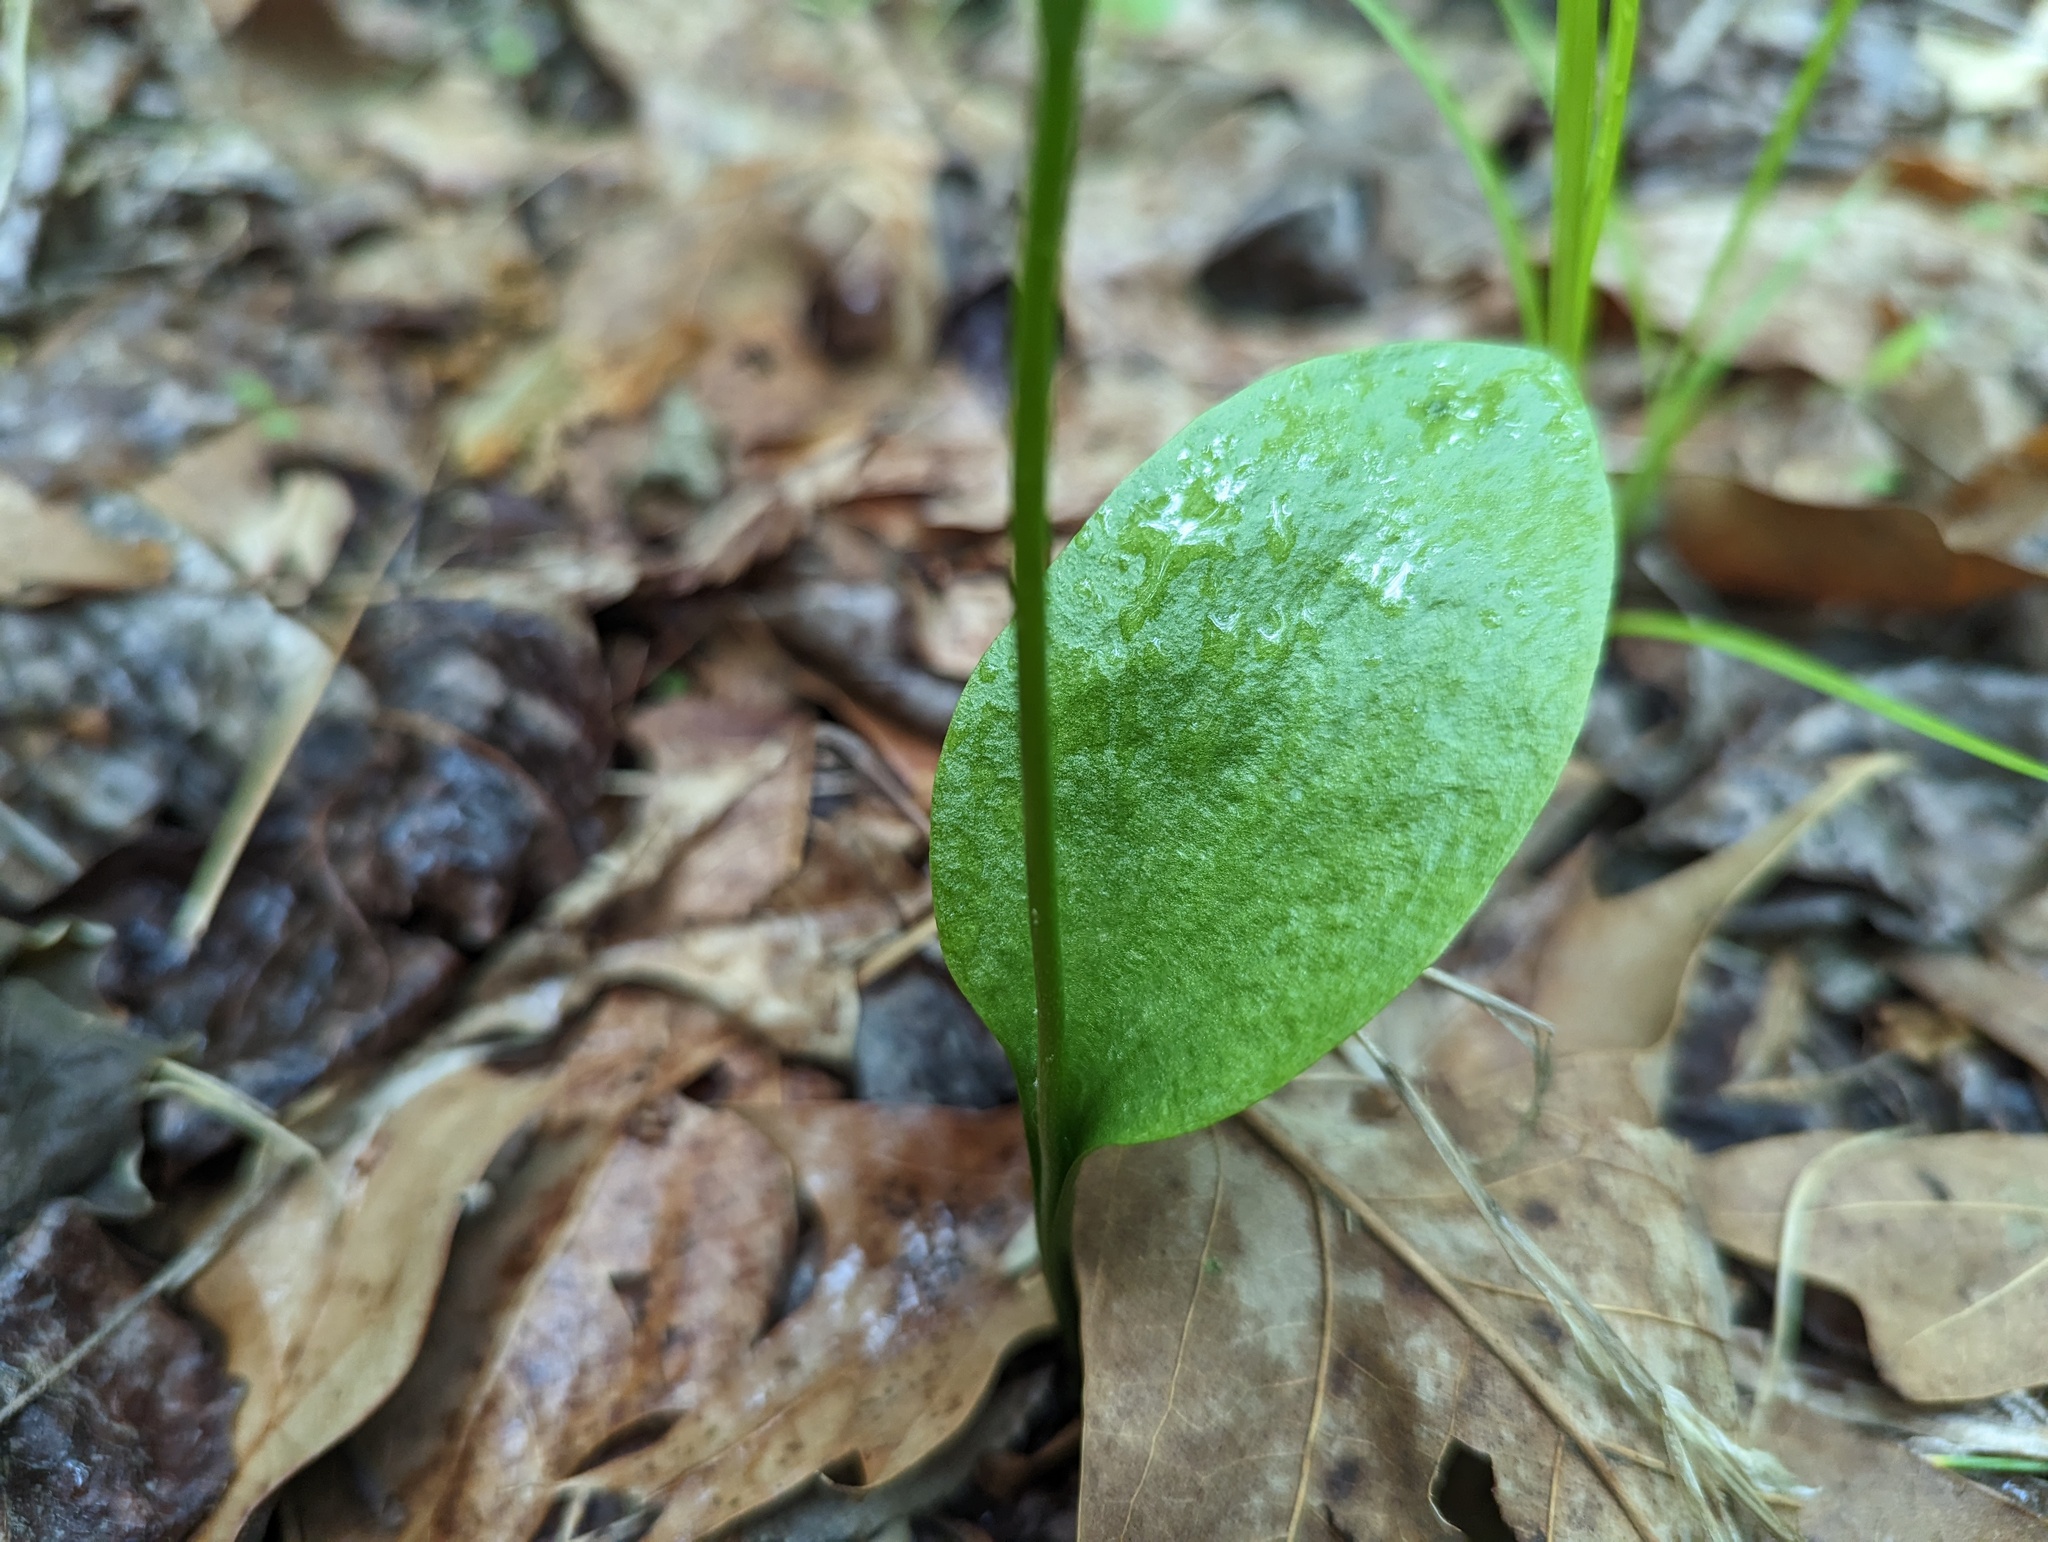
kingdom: Plantae
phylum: Tracheophyta
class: Polypodiopsida
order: Ophioglossales
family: Ophioglossaceae
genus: Ophioglossum
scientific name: Ophioglossum vulgatum
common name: Adder's-tongue
